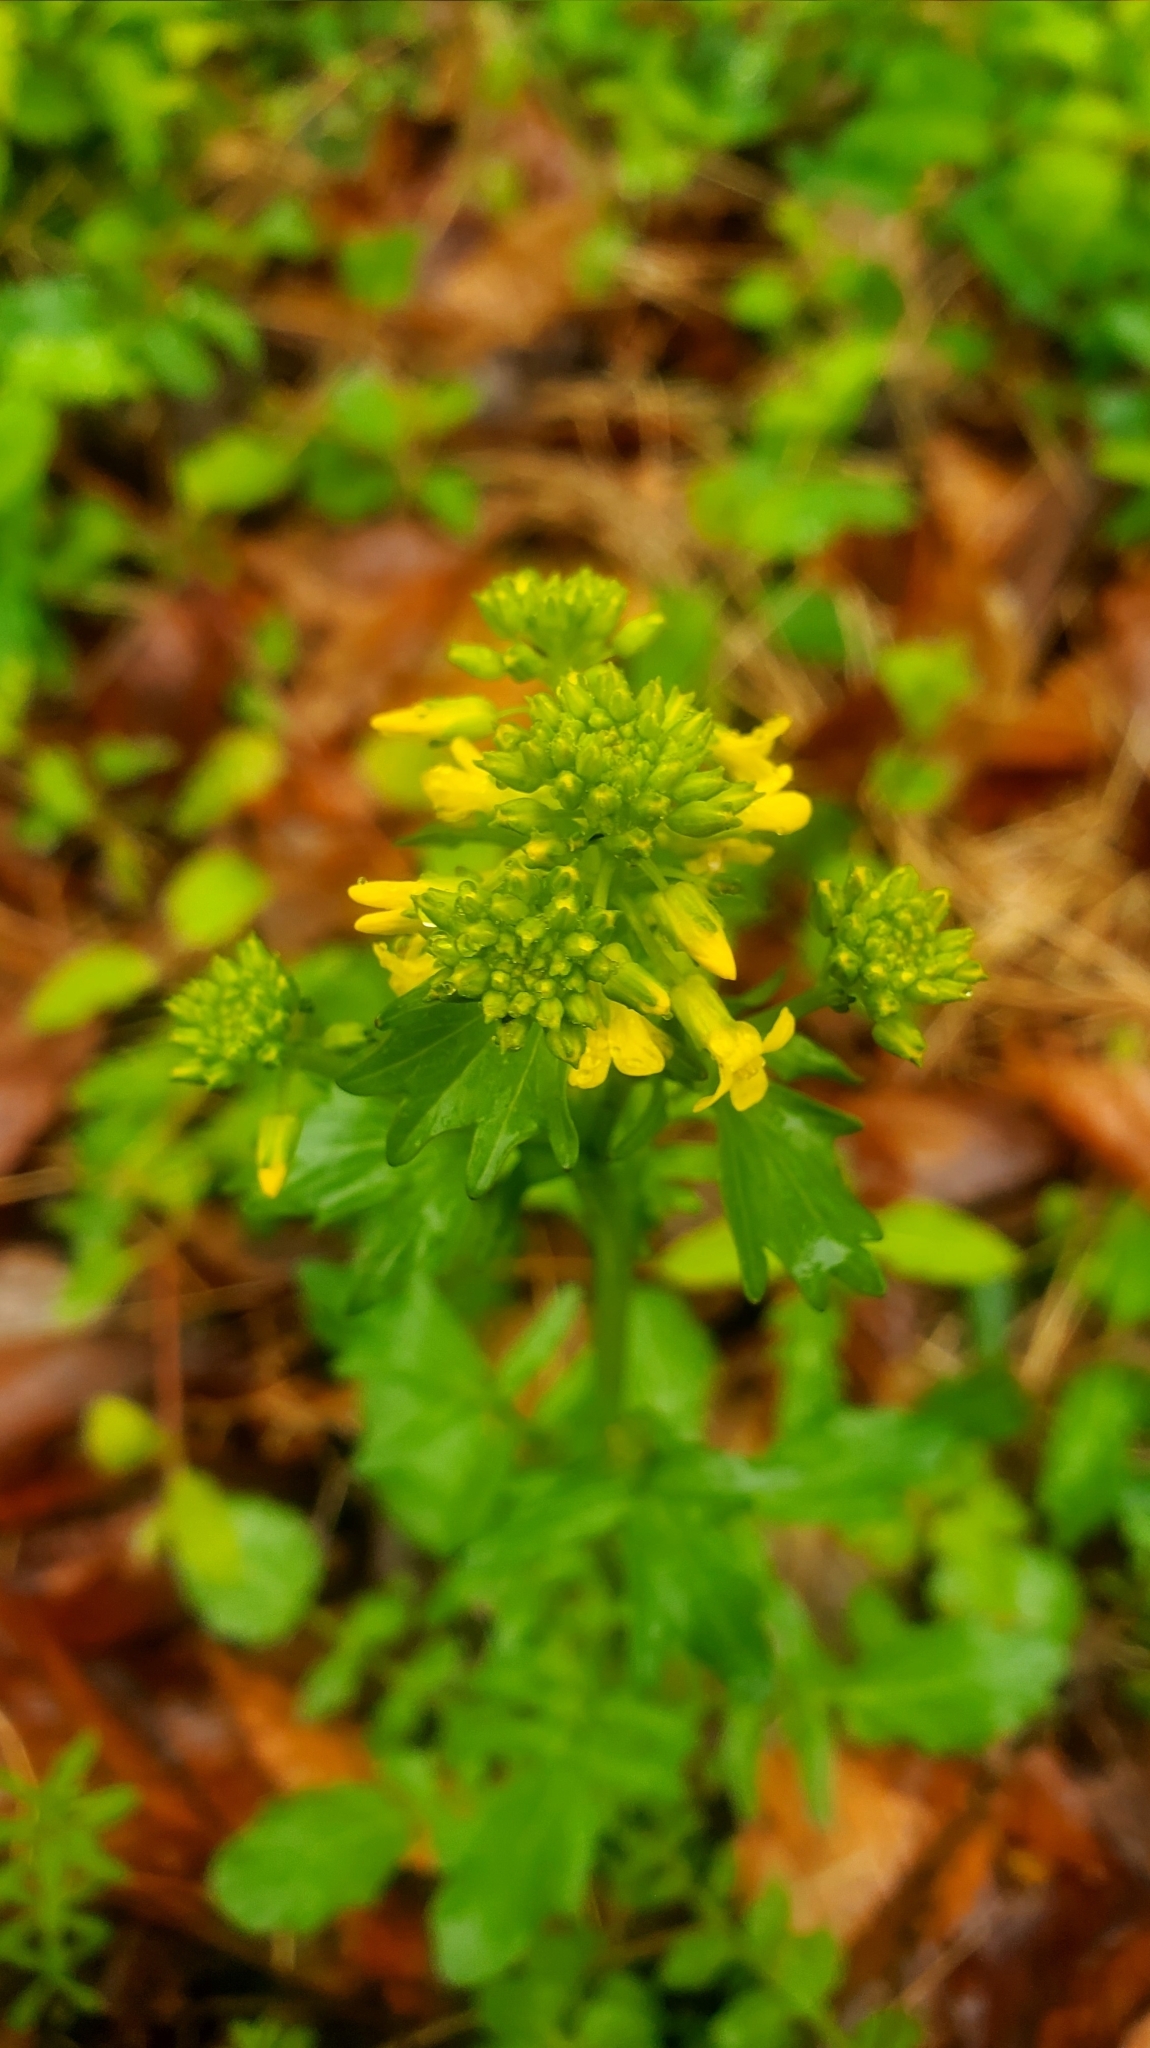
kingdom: Plantae
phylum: Tracheophyta
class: Magnoliopsida
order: Brassicales
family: Brassicaceae
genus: Barbarea
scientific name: Barbarea vulgaris
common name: Cressy-greens
